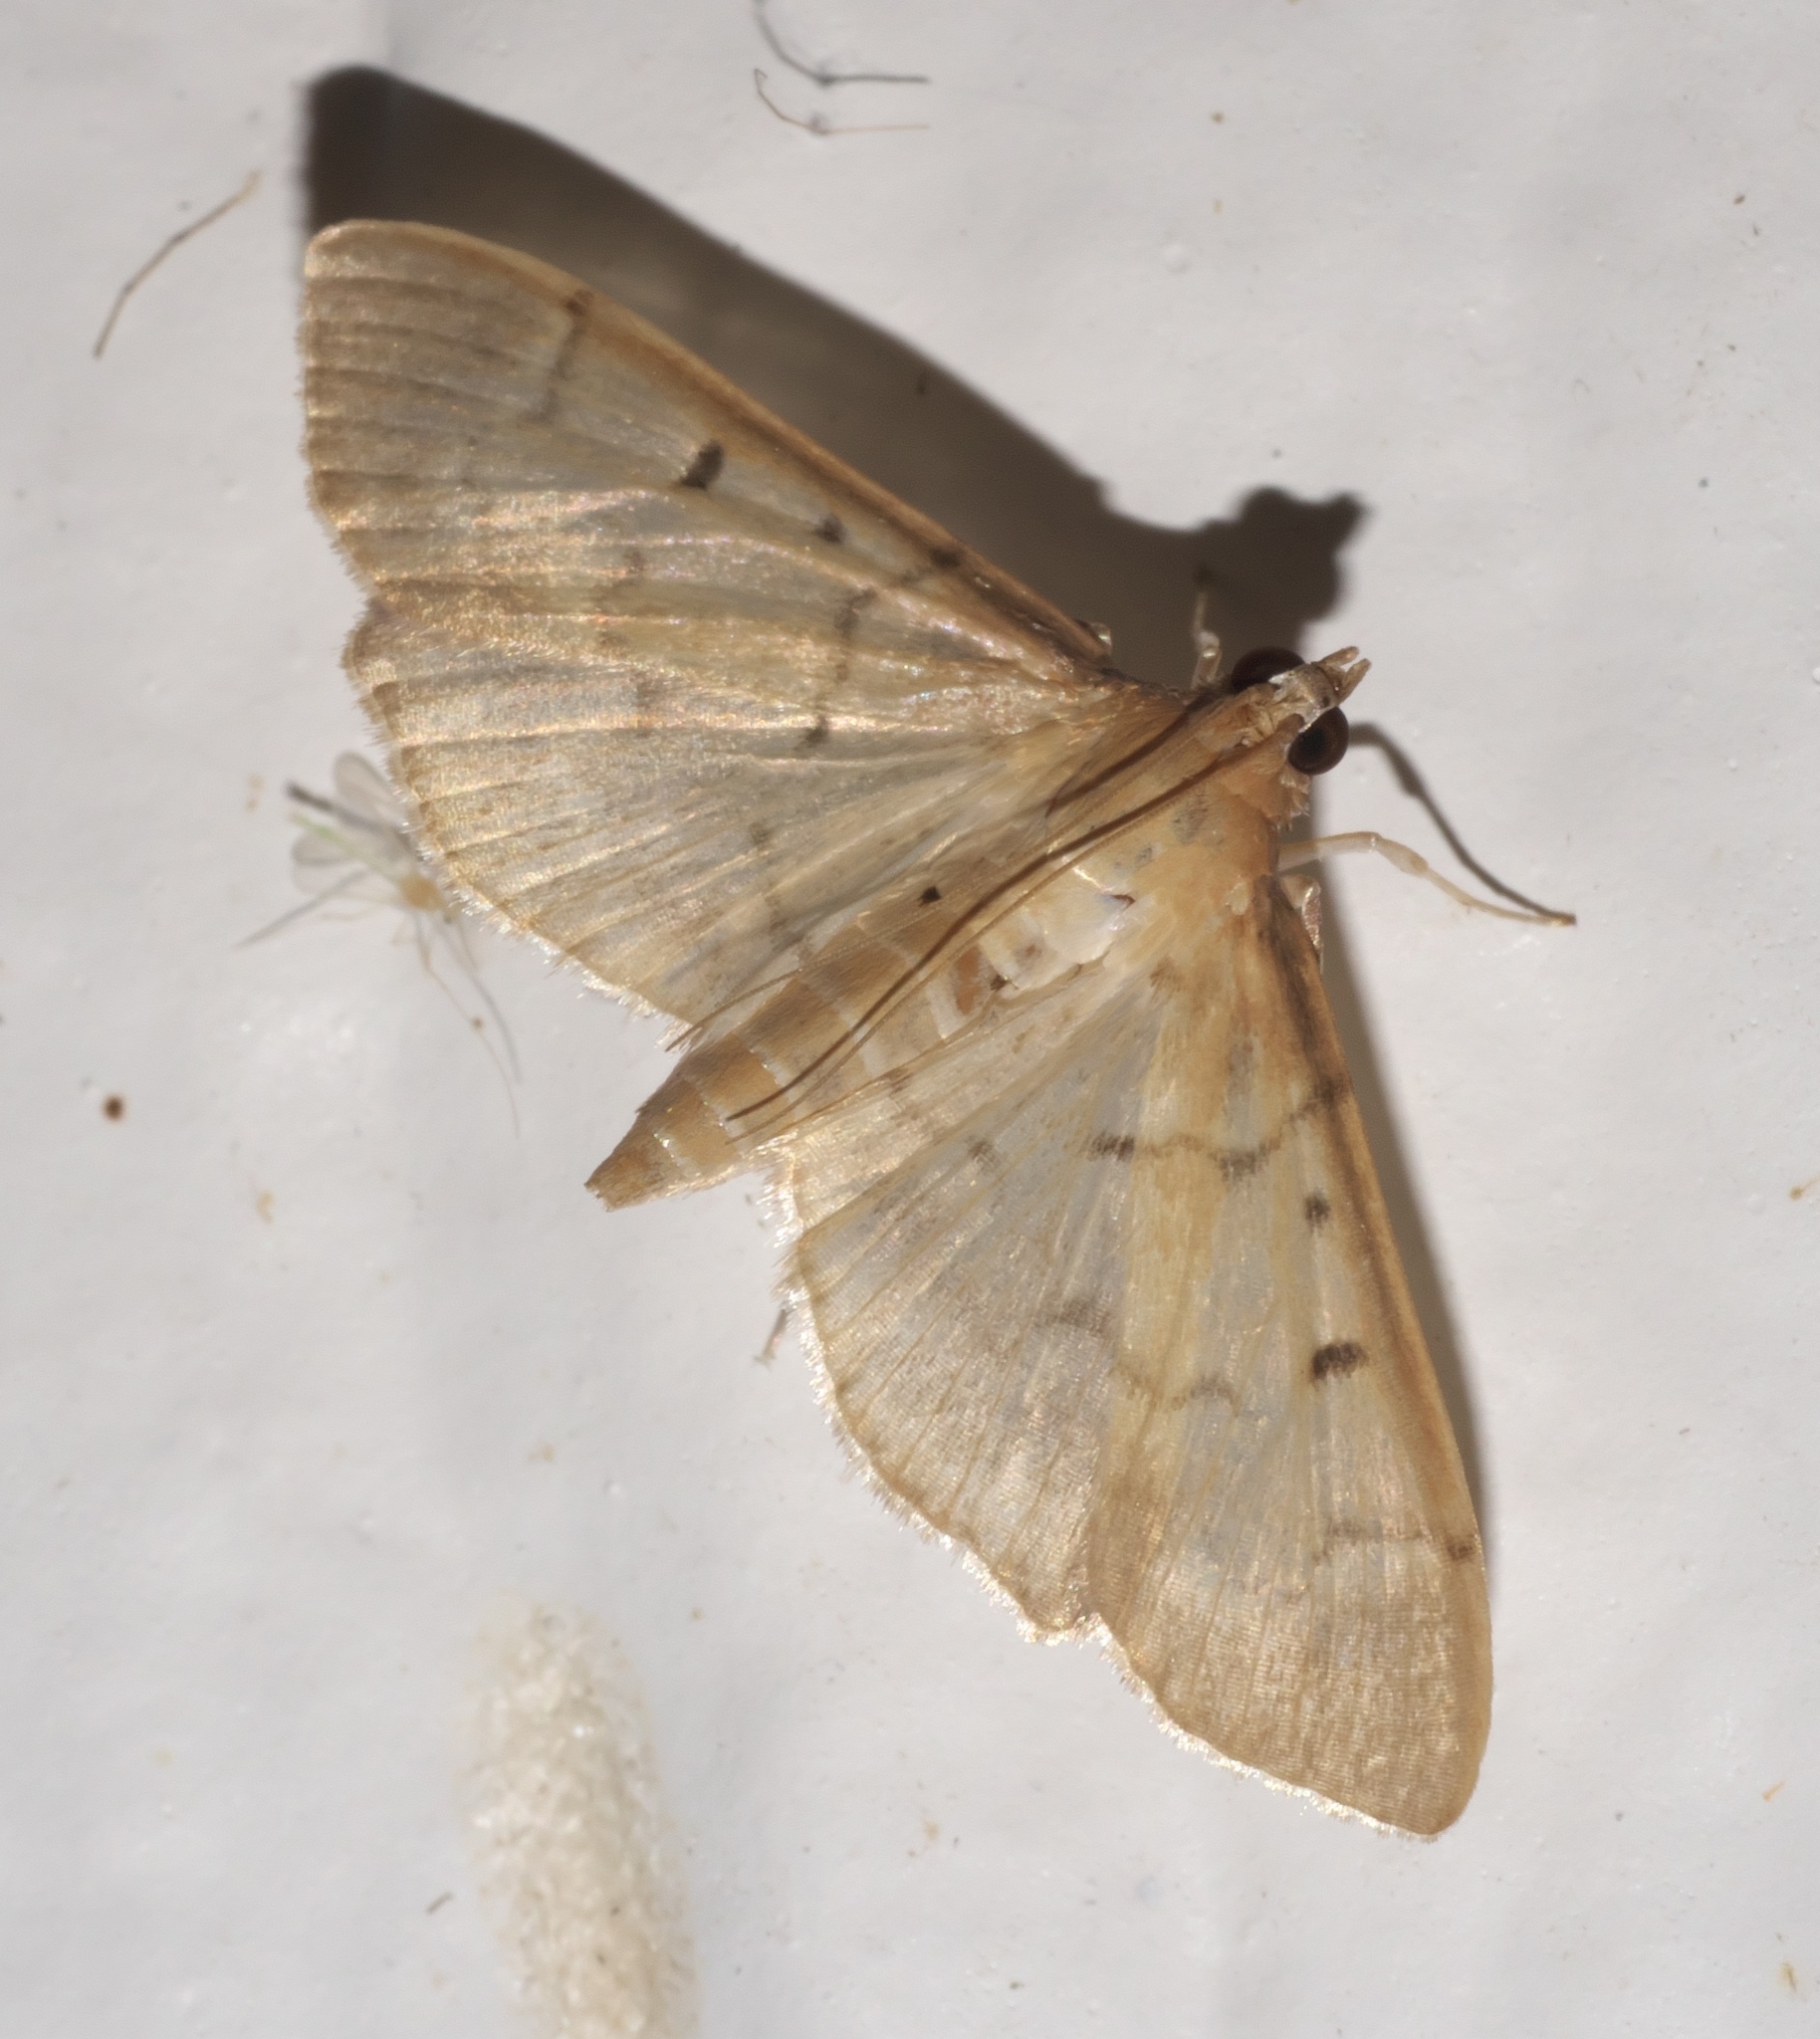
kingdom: Animalia
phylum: Arthropoda
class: Insecta
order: Lepidoptera
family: Crambidae
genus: Herpetogramma
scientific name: Herpetogramma bipunctalis
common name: Southern beet webworm
